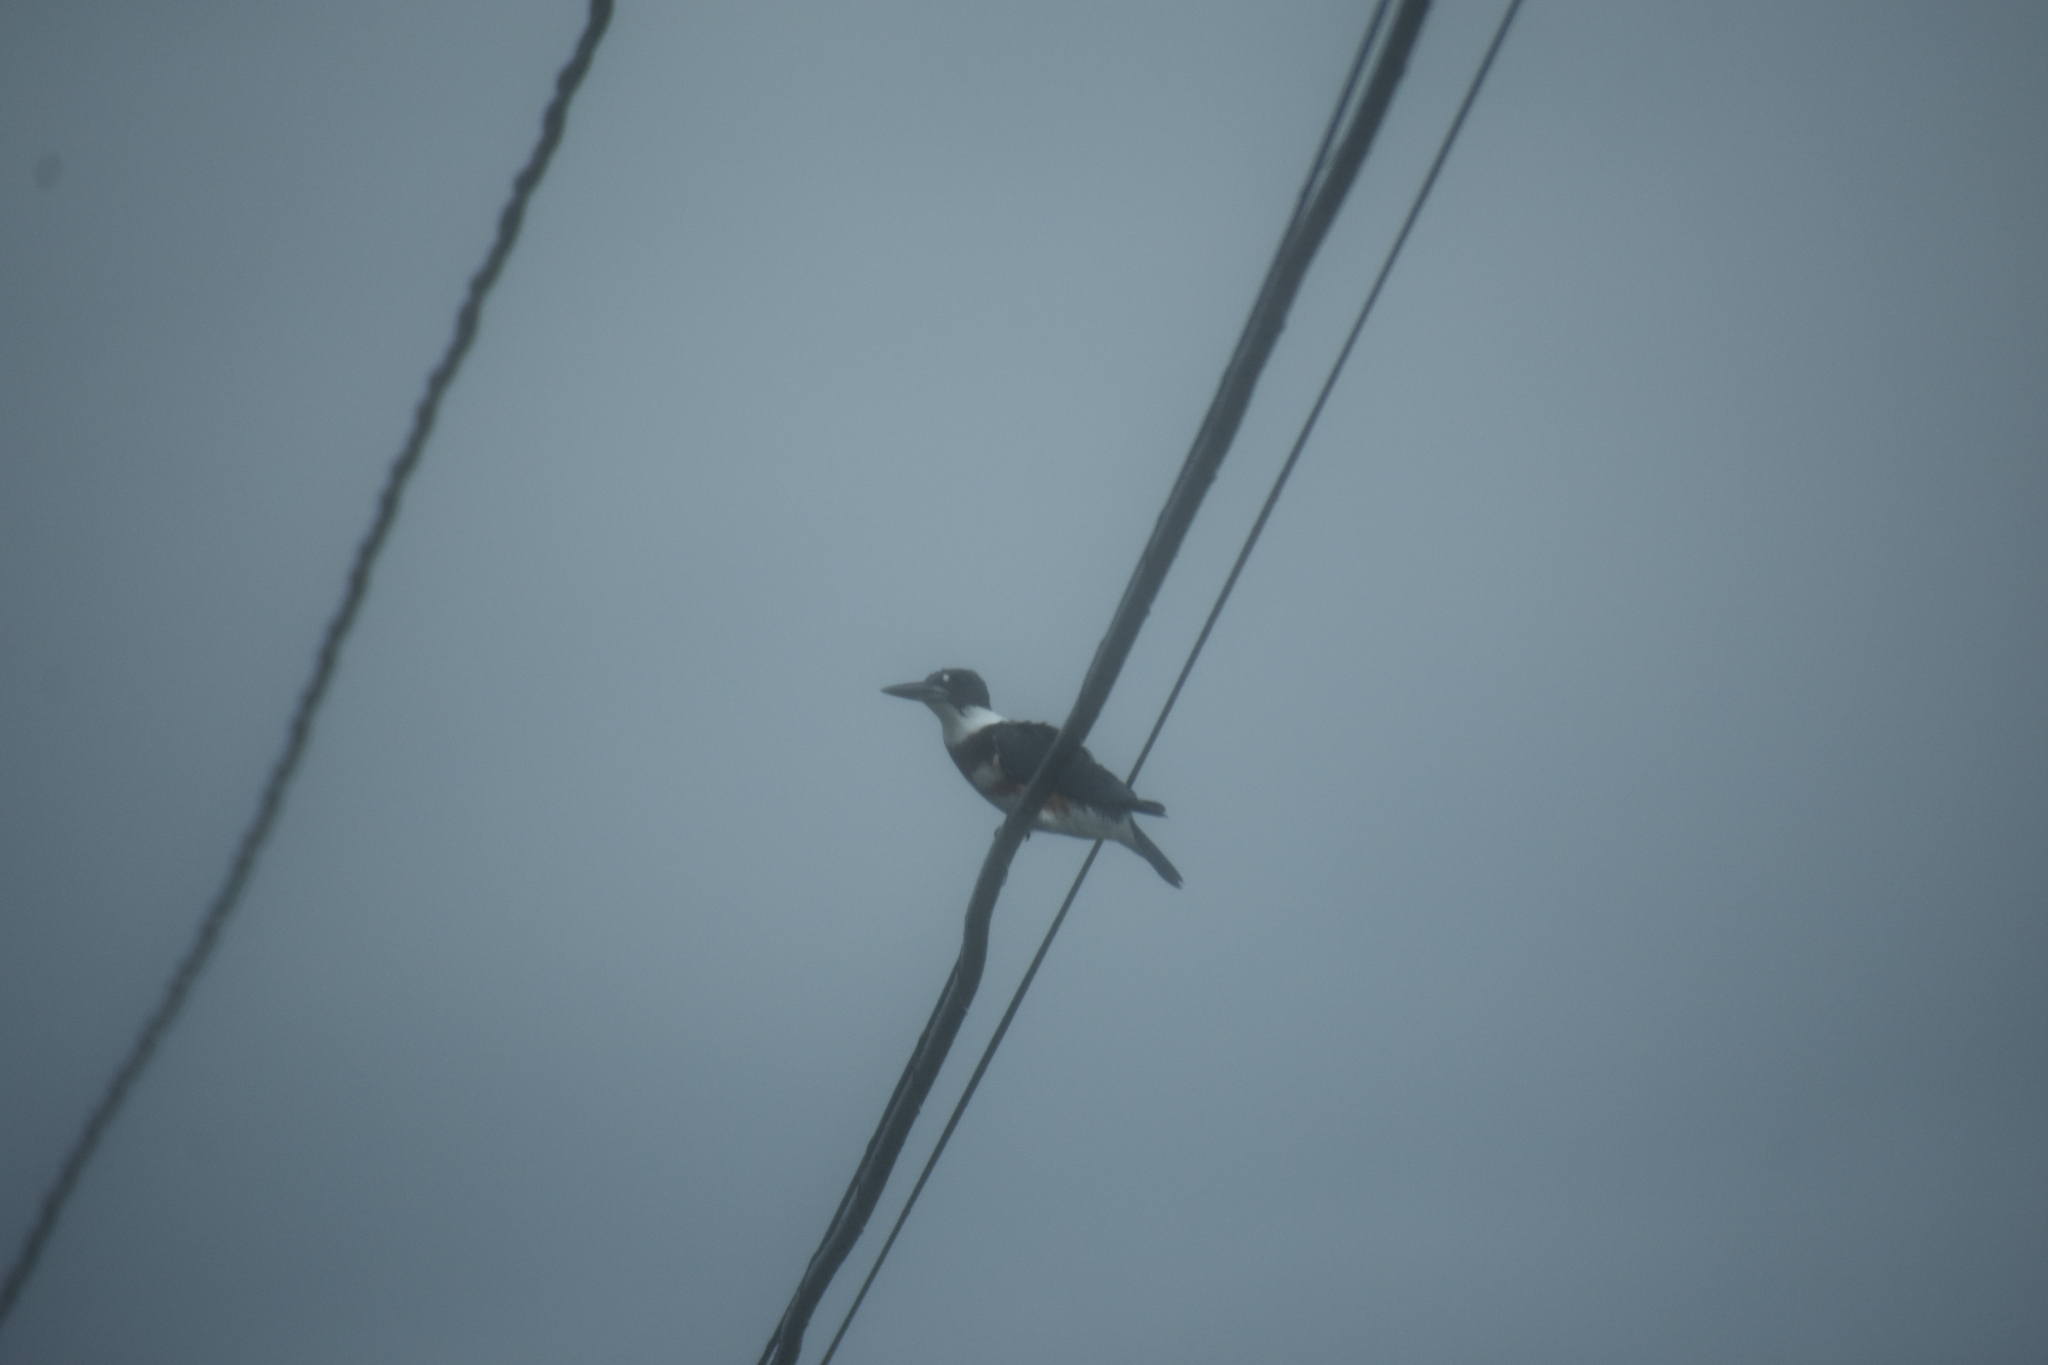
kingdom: Animalia
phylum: Chordata
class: Aves
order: Coraciiformes
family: Alcedinidae
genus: Megaceryle
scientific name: Megaceryle alcyon
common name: Belted kingfisher
